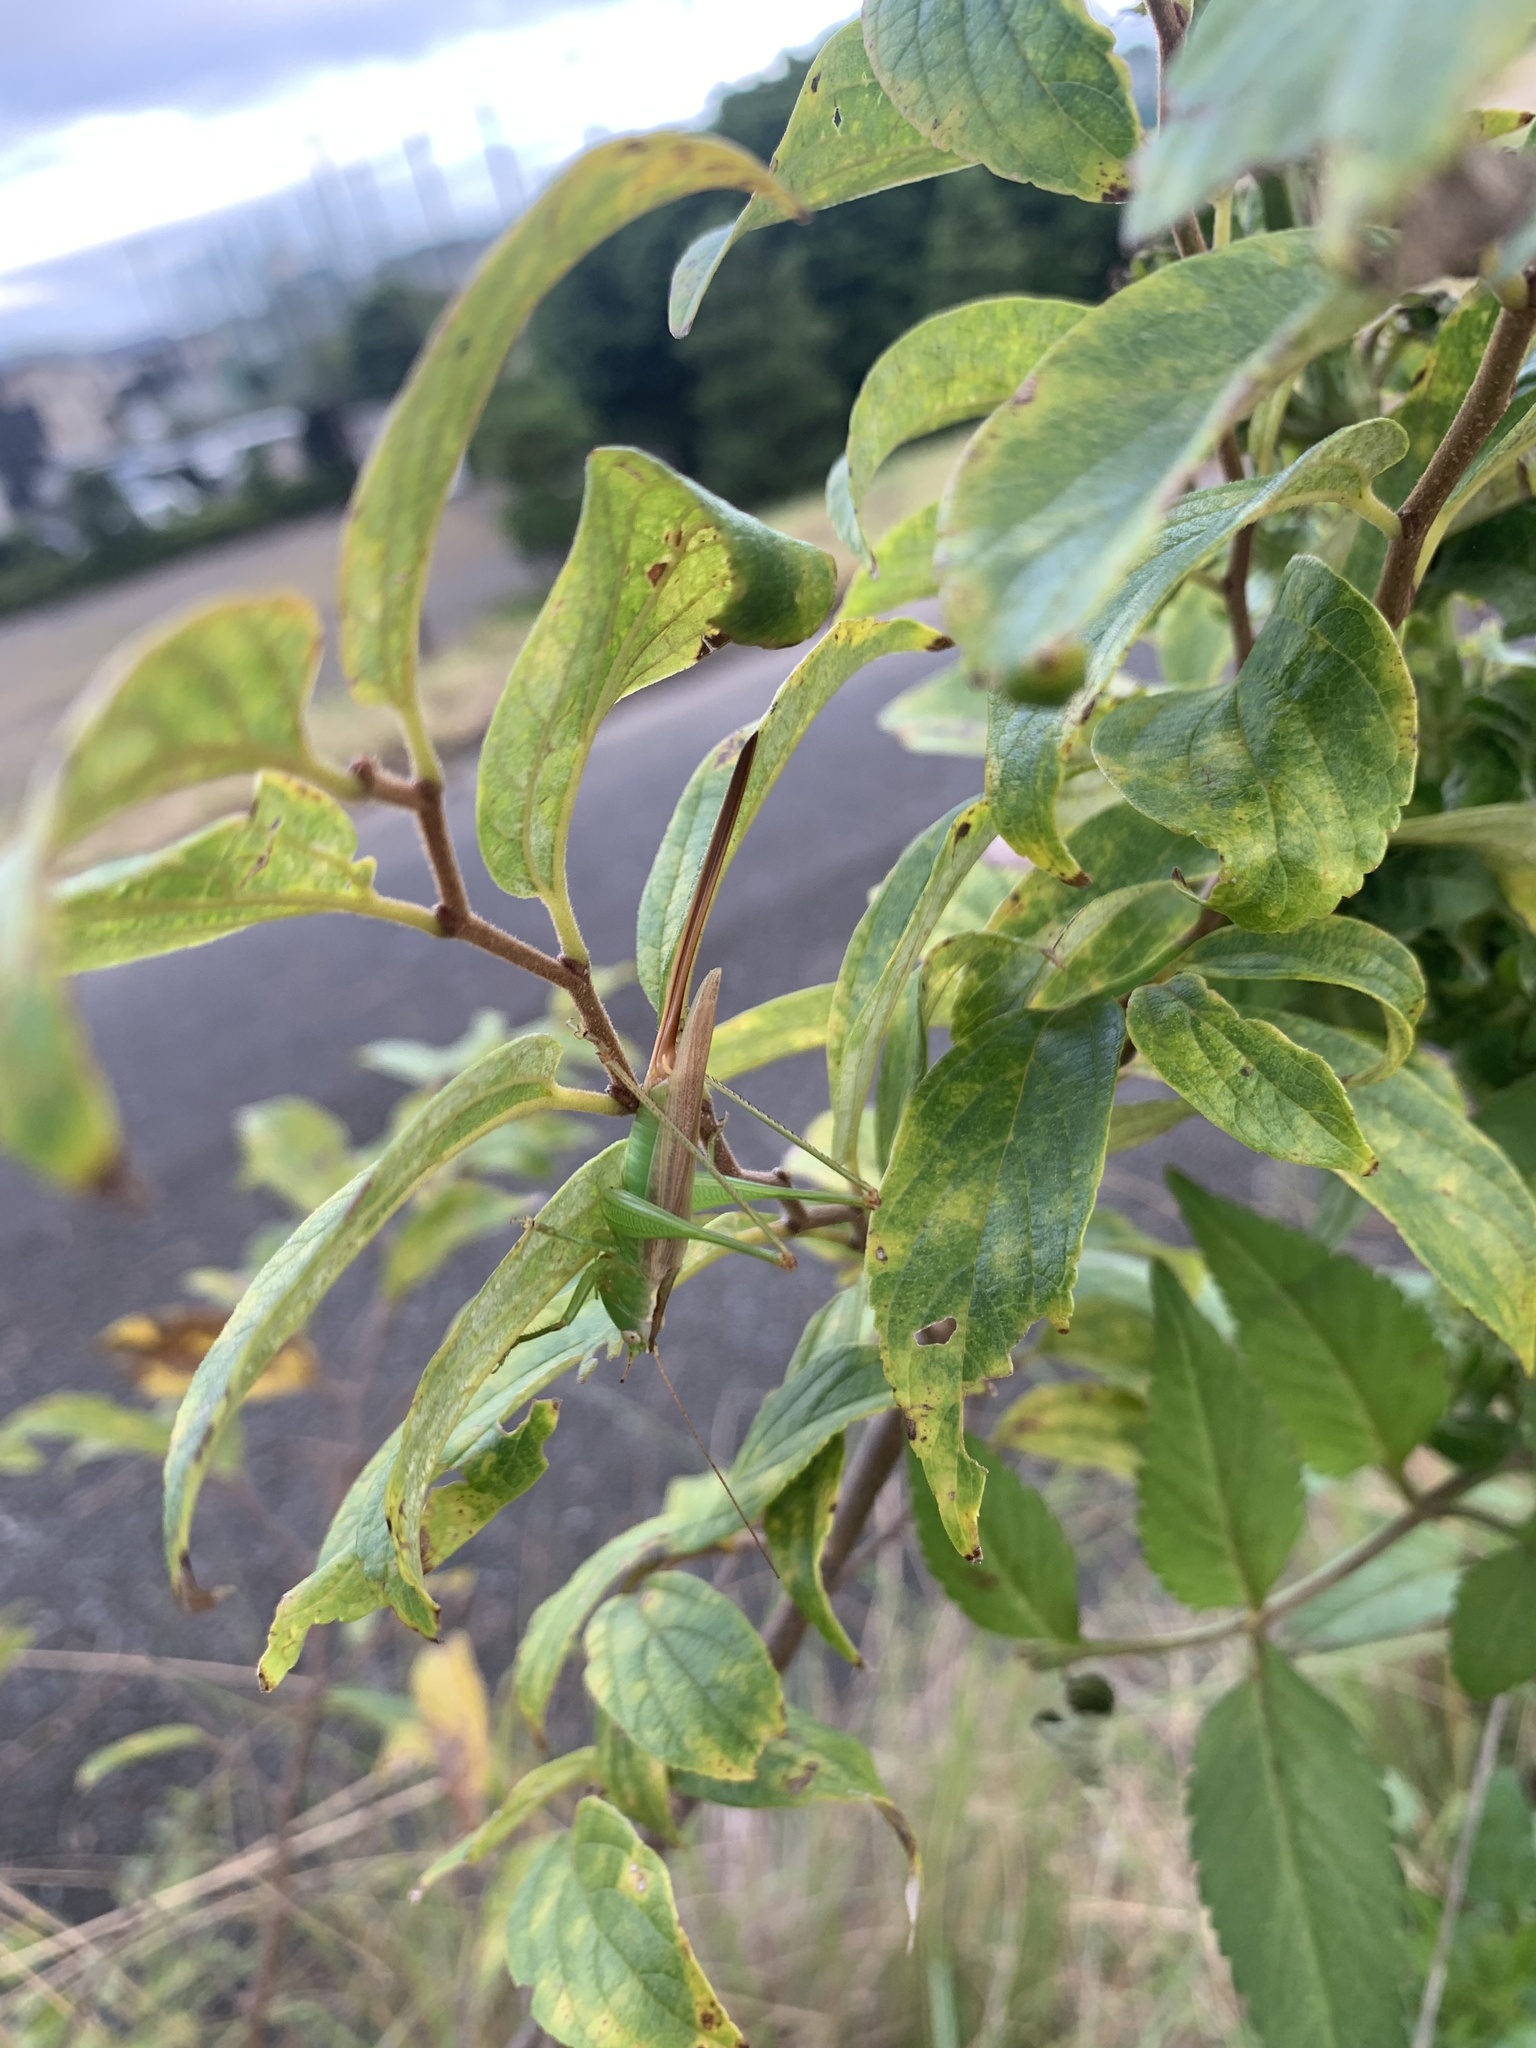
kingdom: Animalia
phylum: Arthropoda
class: Insecta
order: Orthoptera
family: Tettigoniidae
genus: Conocephalus
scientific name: Conocephalus exemptus
